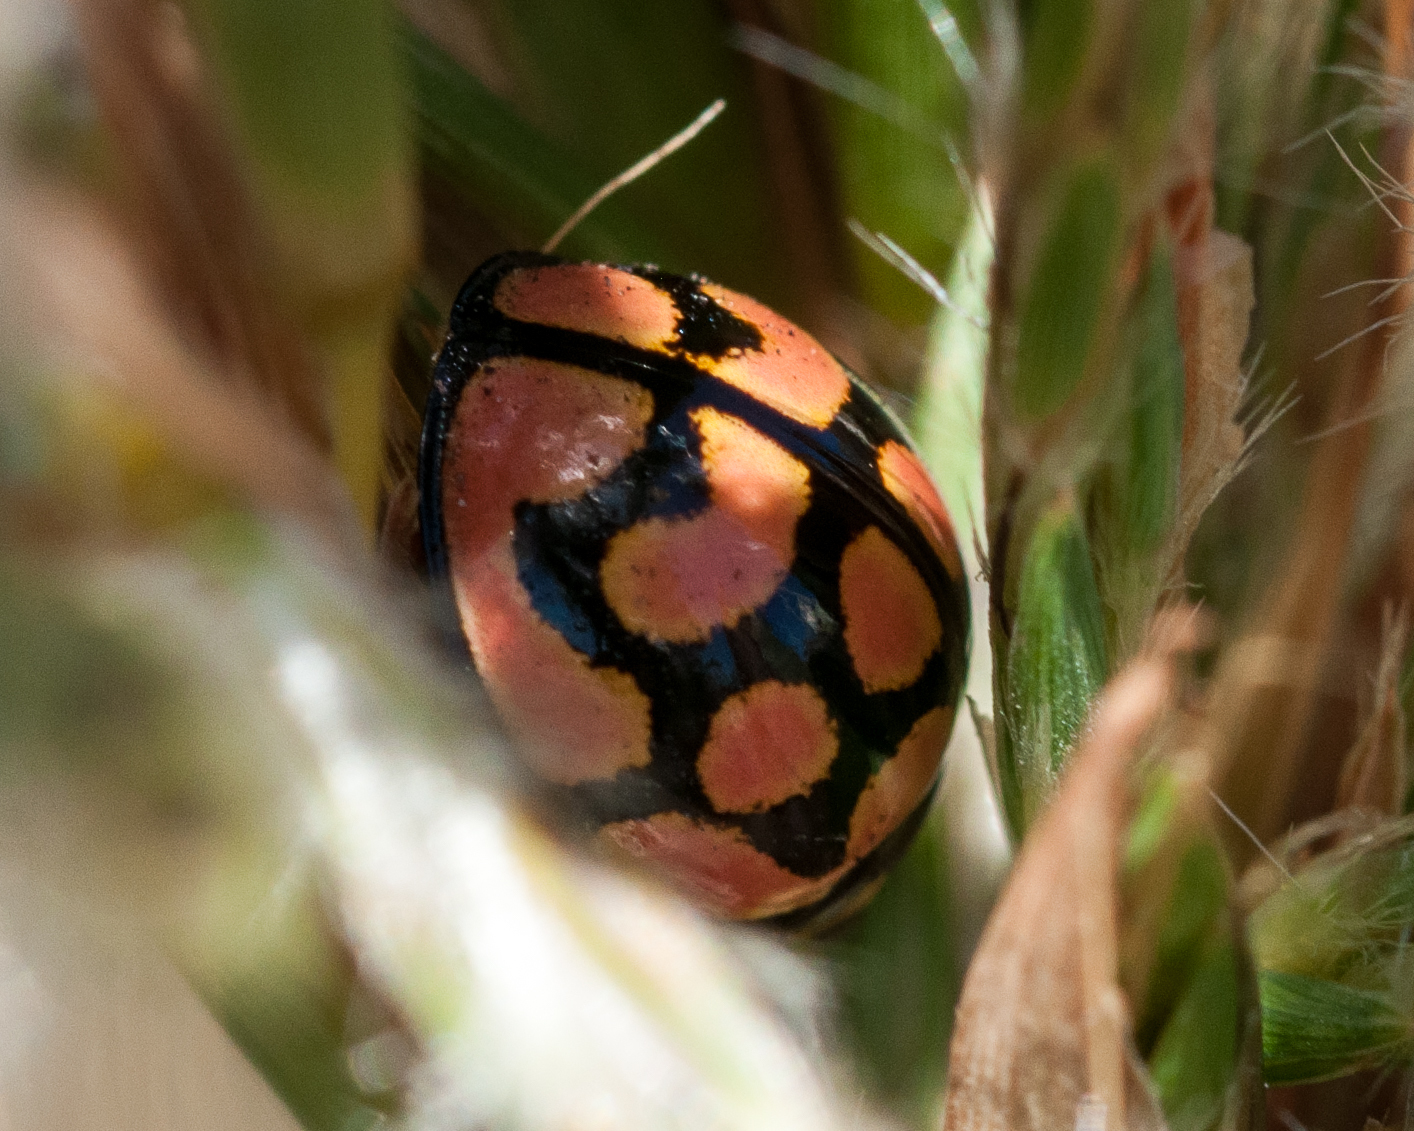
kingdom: Animalia
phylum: Arthropoda
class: Insecta
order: Coleoptera
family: Coccinellidae
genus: Cheilomenes
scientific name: Cheilomenes lunata
